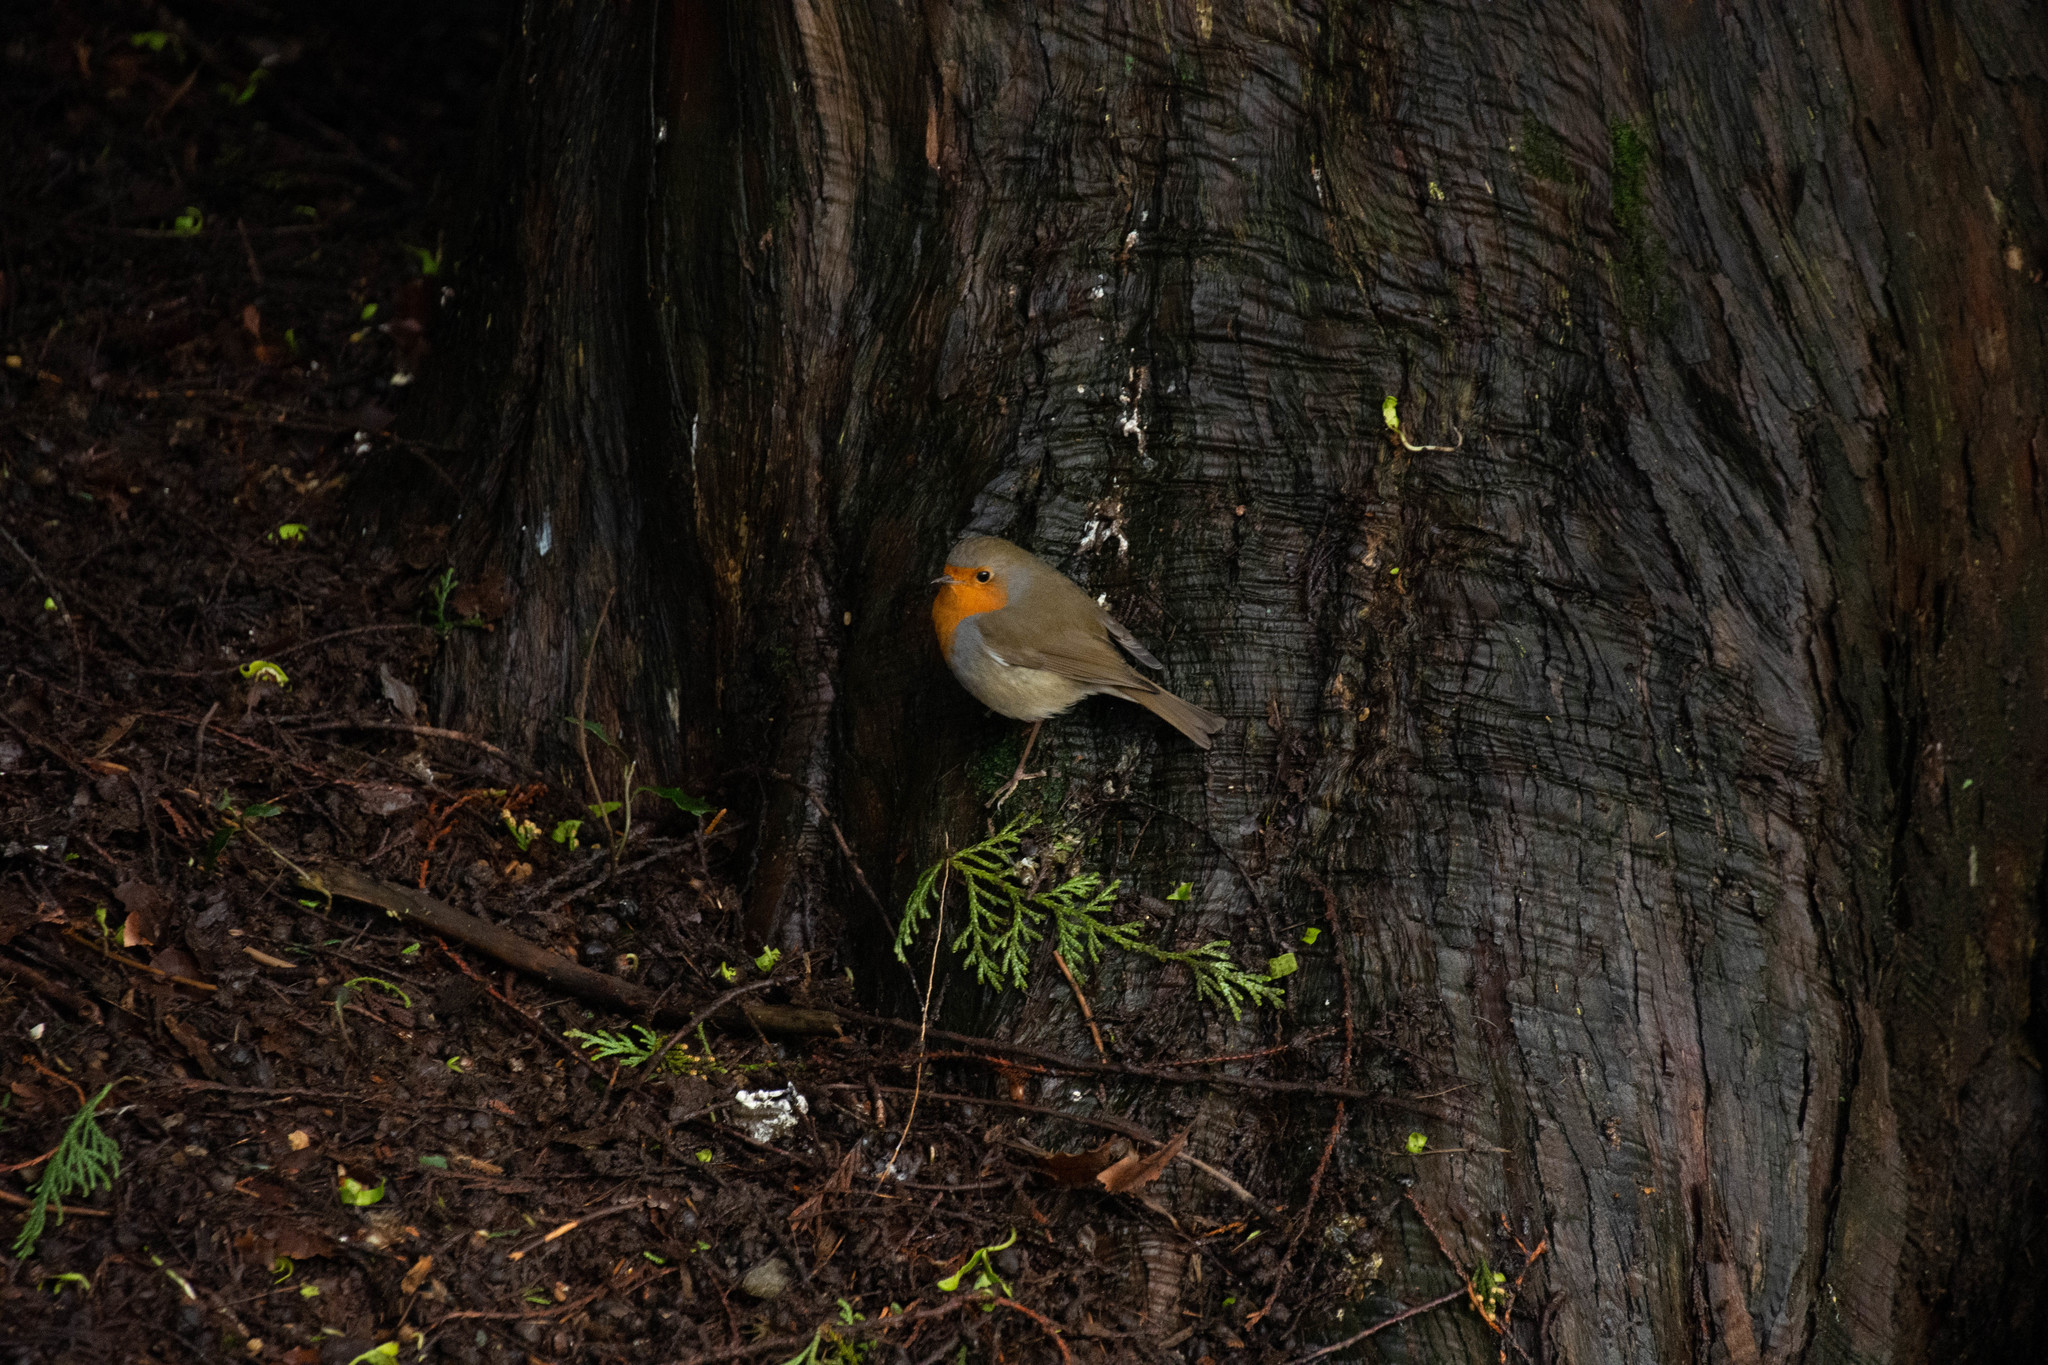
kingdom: Animalia
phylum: Chordata
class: Aves
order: Passeriformes
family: Muscicapidae
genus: Erithacus
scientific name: Erithacus rubecula
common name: European robin
